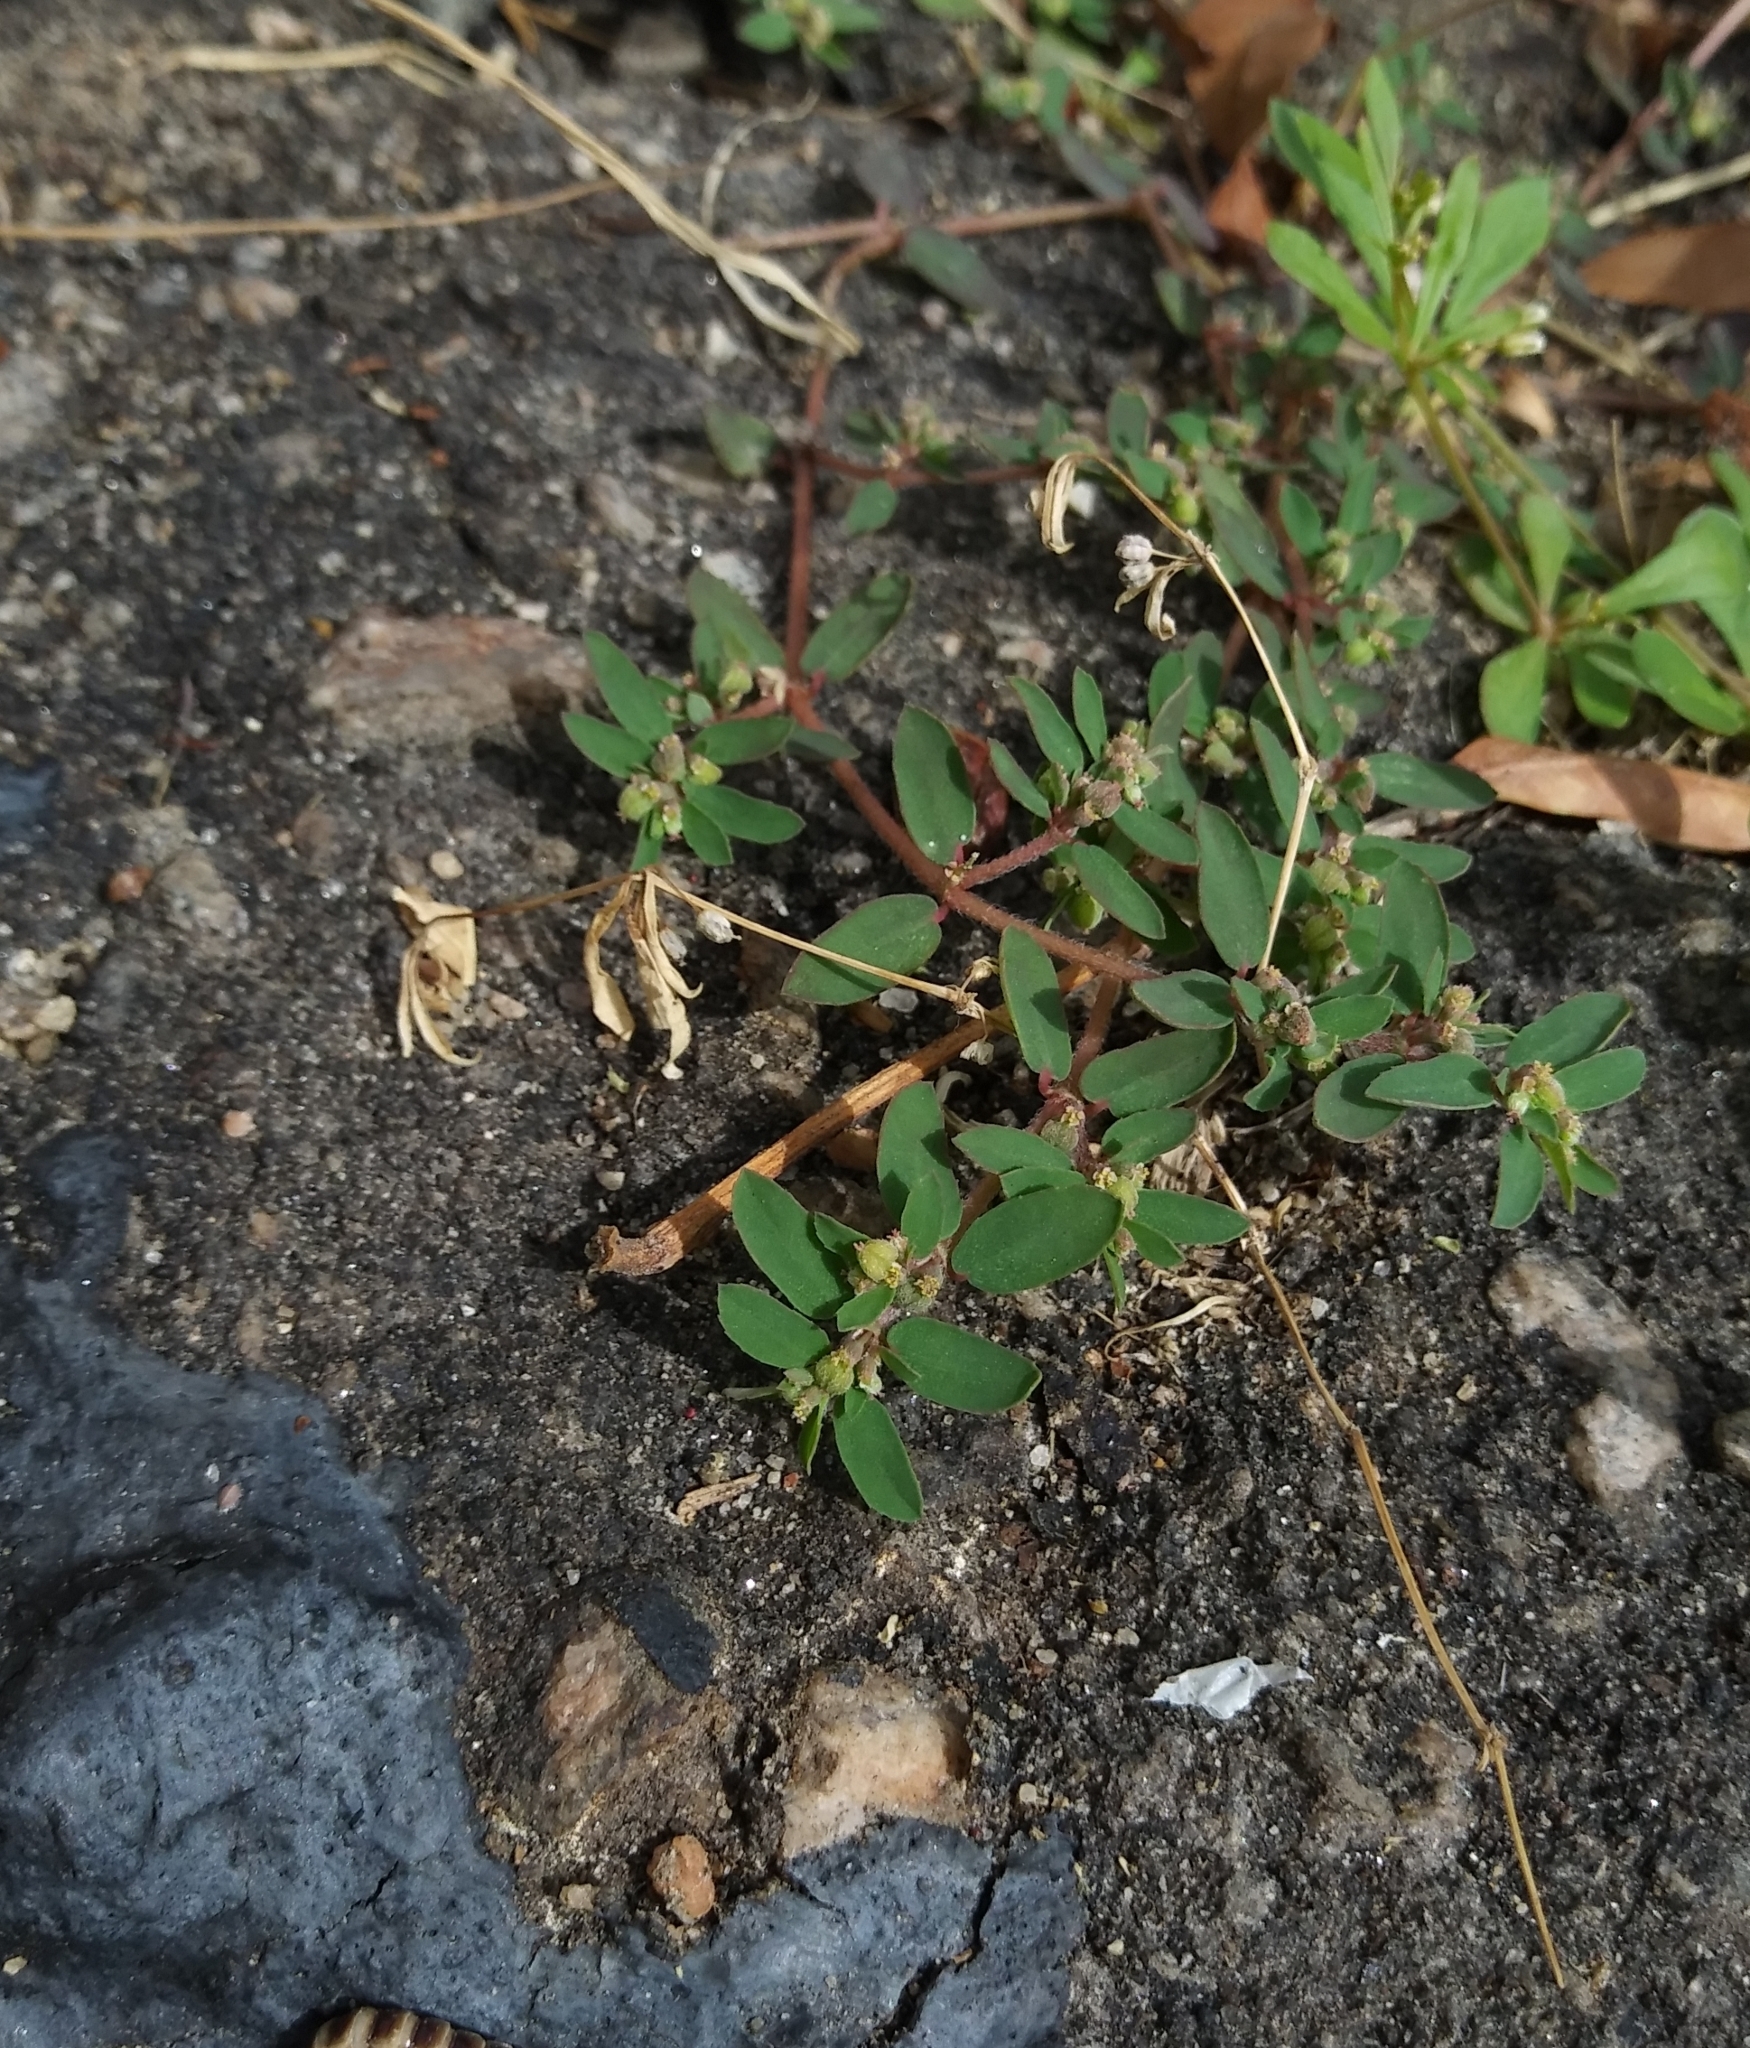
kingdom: Plantae
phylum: Tracheophyta
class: Magnoliopsida
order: Malpighiales
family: Euphorbiaceae
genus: Euphorbia
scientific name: Euphorbia maculata
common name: Spotted spurge
